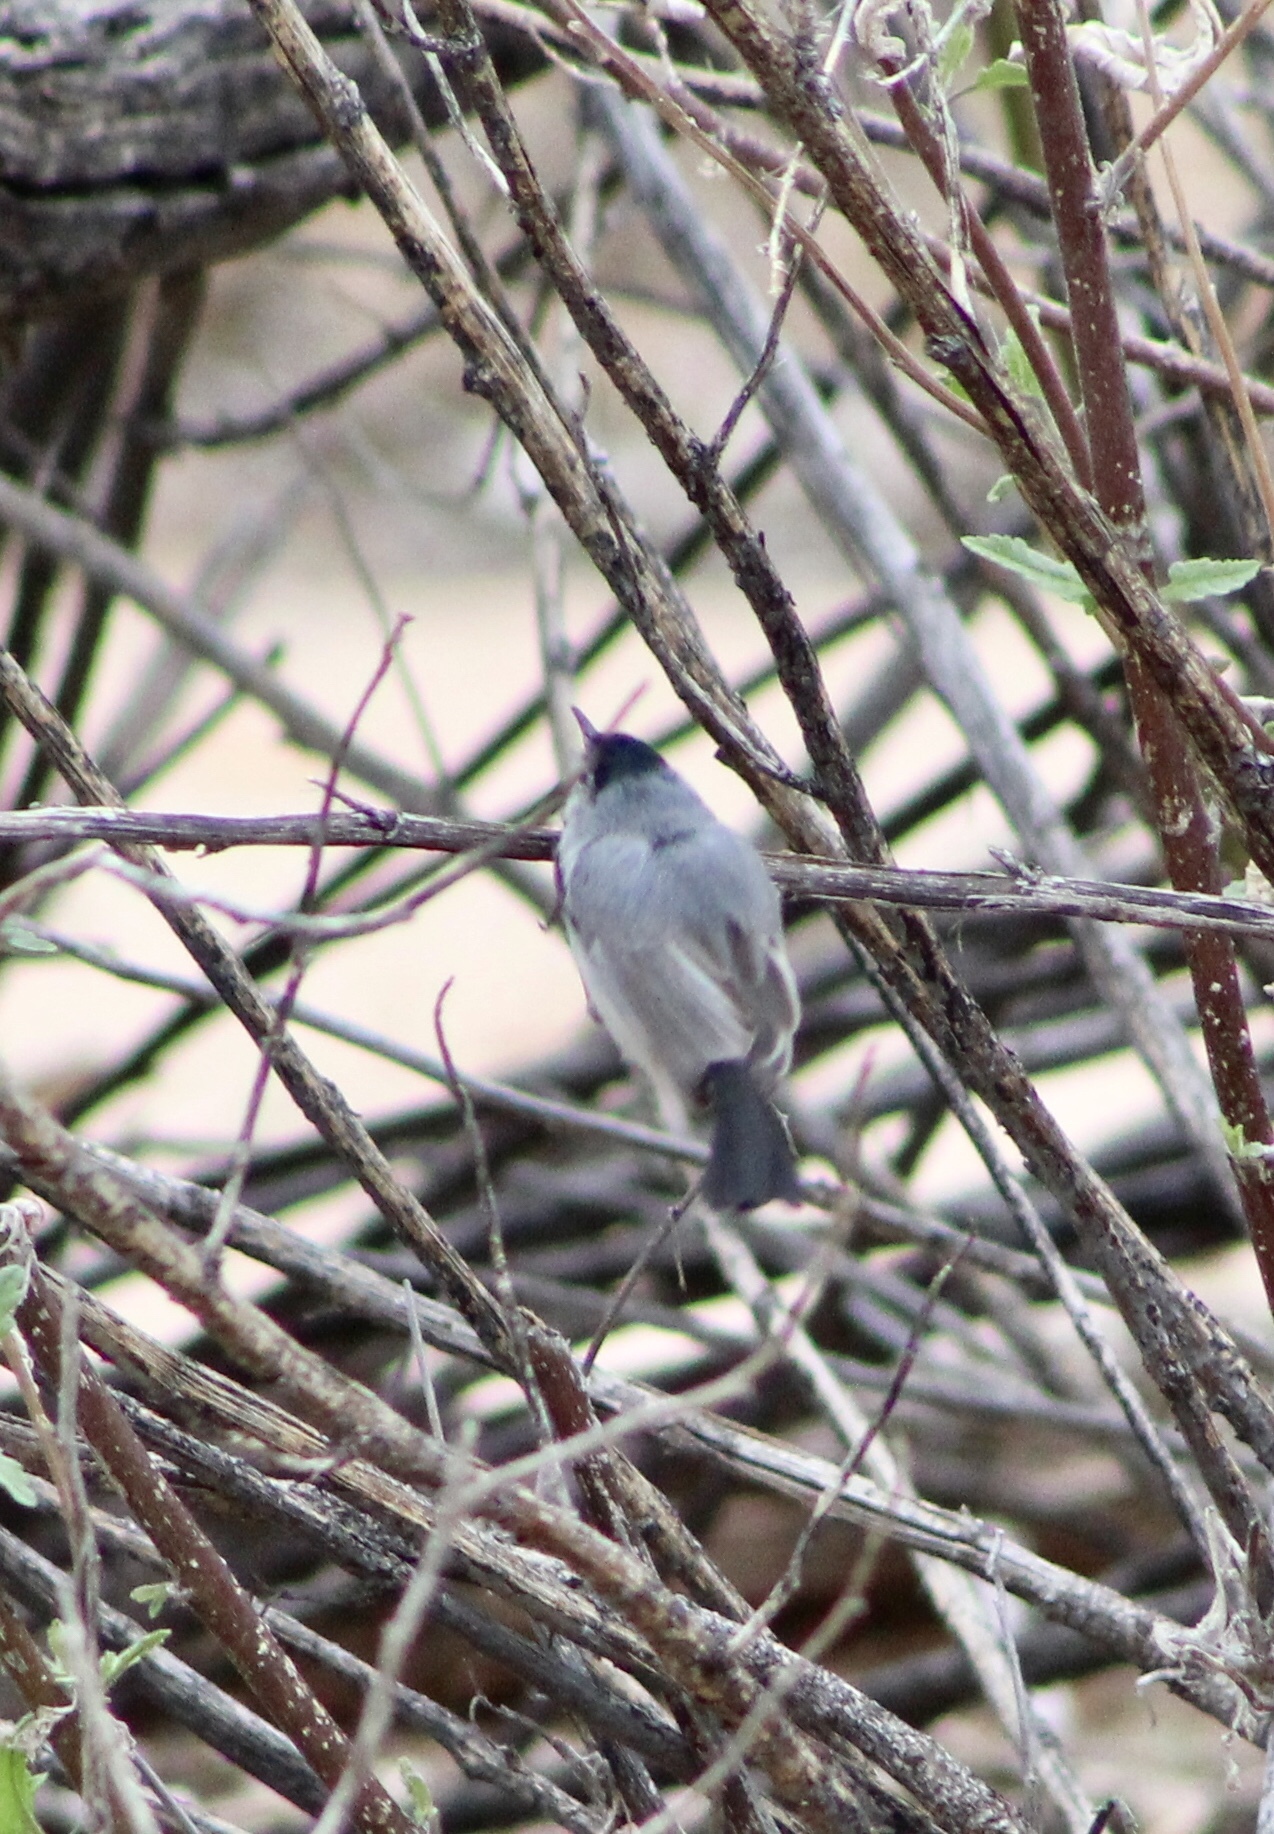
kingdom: Animalia
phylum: Chordata
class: Aves
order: Passeriformes
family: Polioptilidae
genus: Polioptila
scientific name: Polioptila melanura
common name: Black-tailed gnatcatcher
